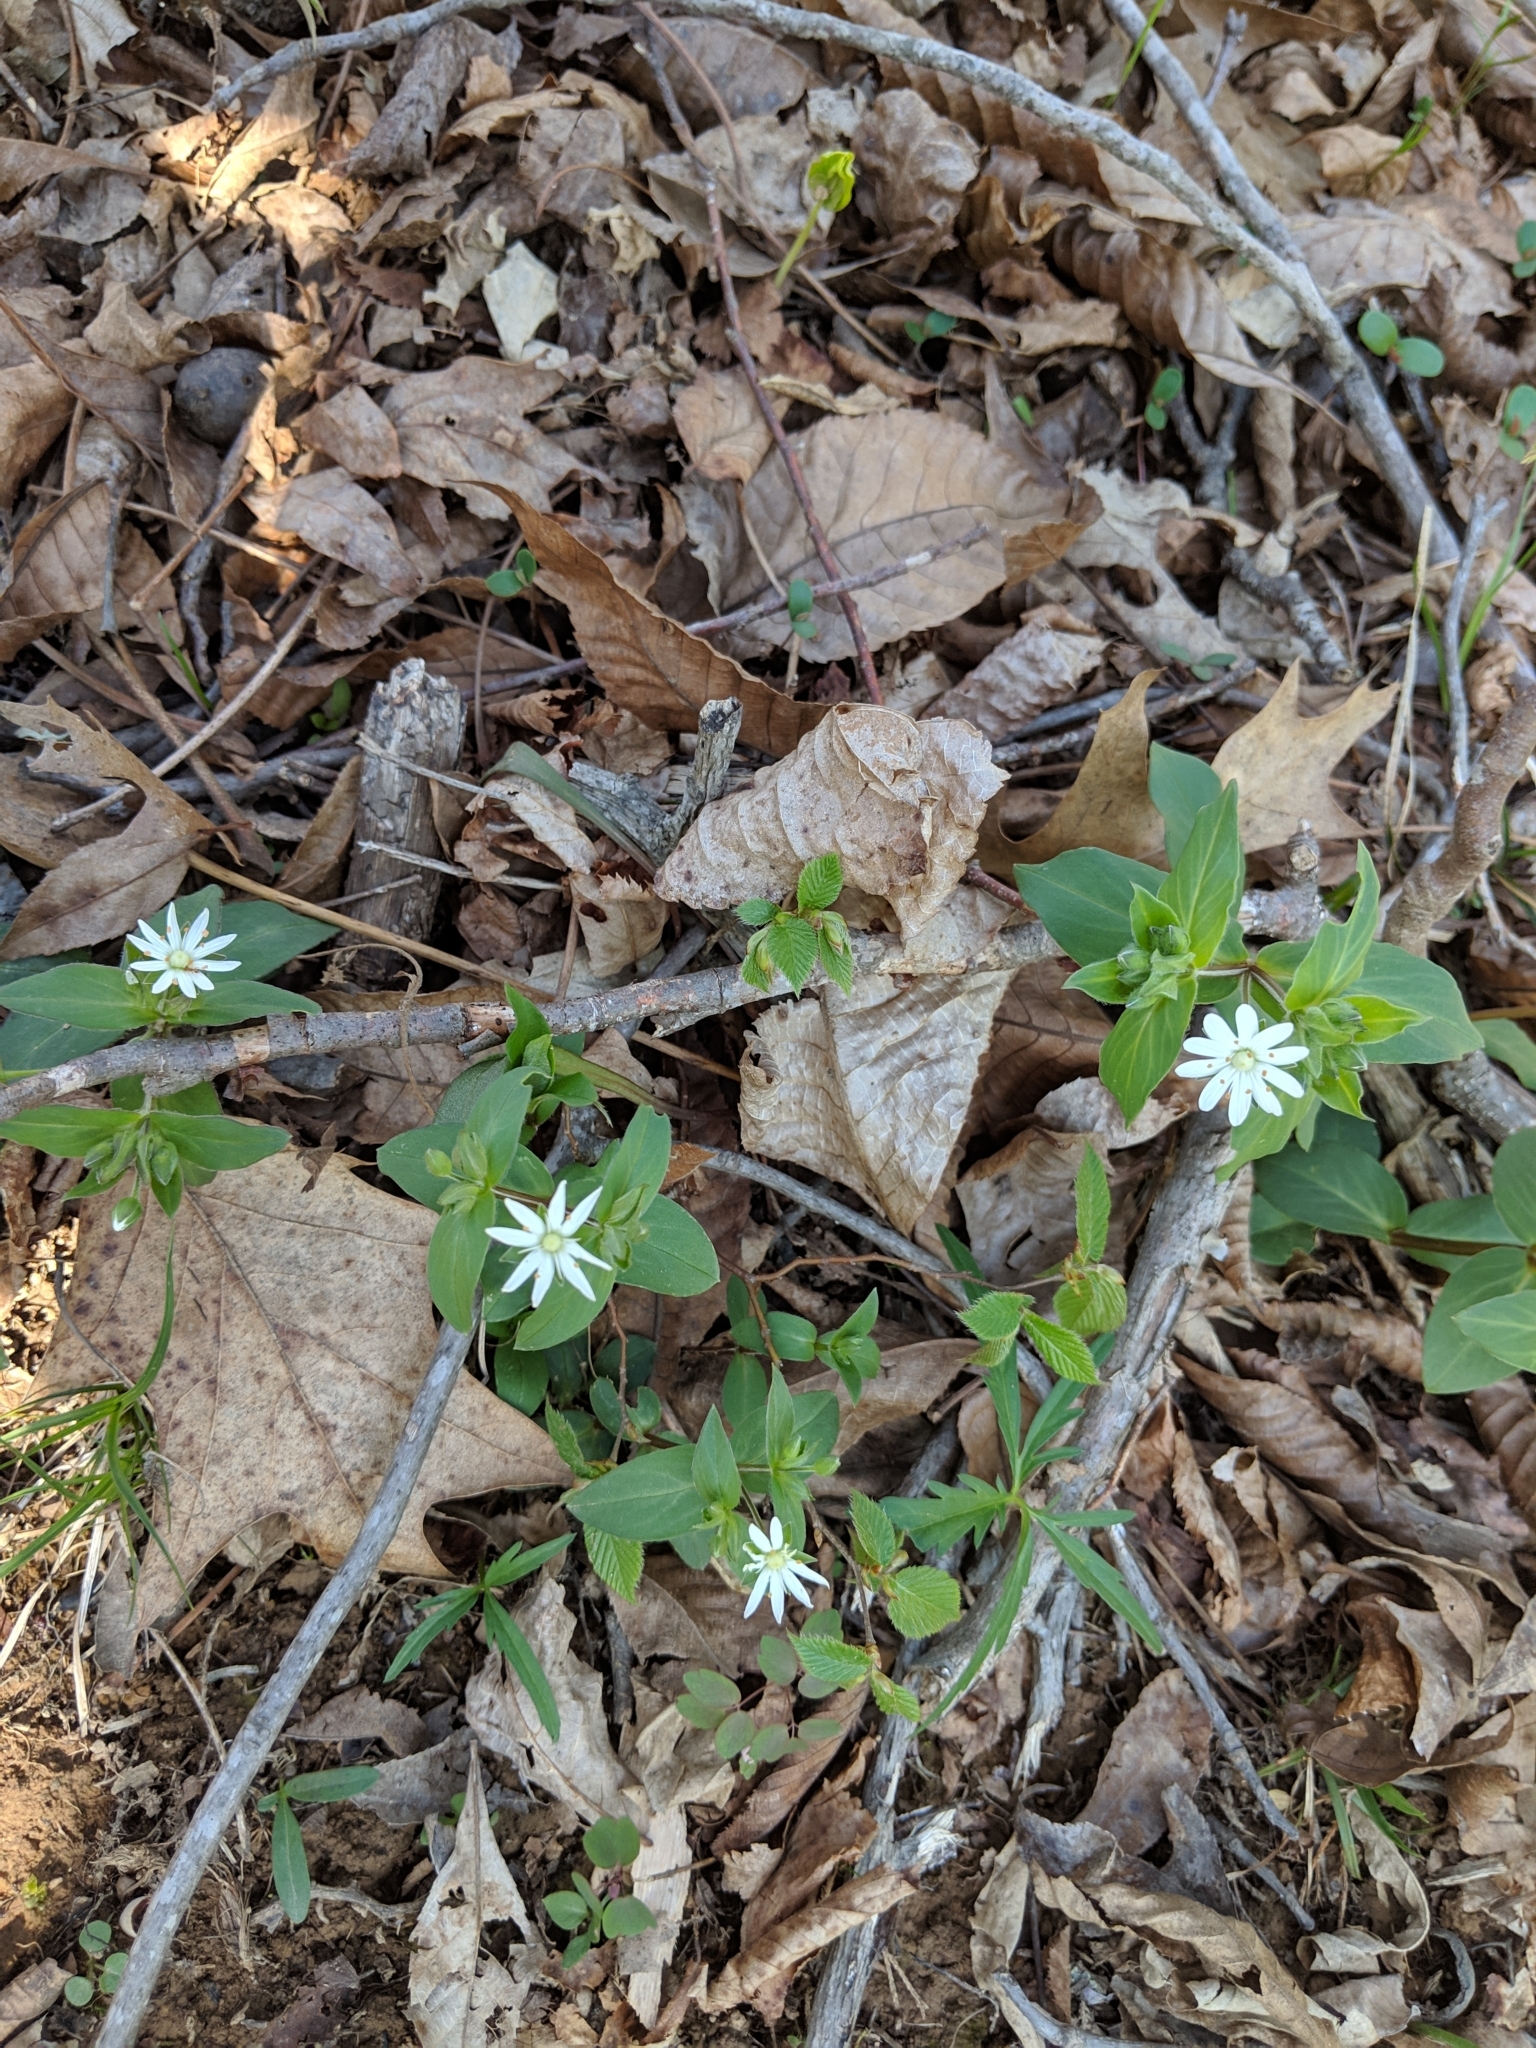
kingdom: Plantae
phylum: Tracheophyta
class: Magnoliopsida
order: Caryophyllales
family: Caryophyllaceae
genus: Stellaria
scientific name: Stellaria pubera
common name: Star chickweed
